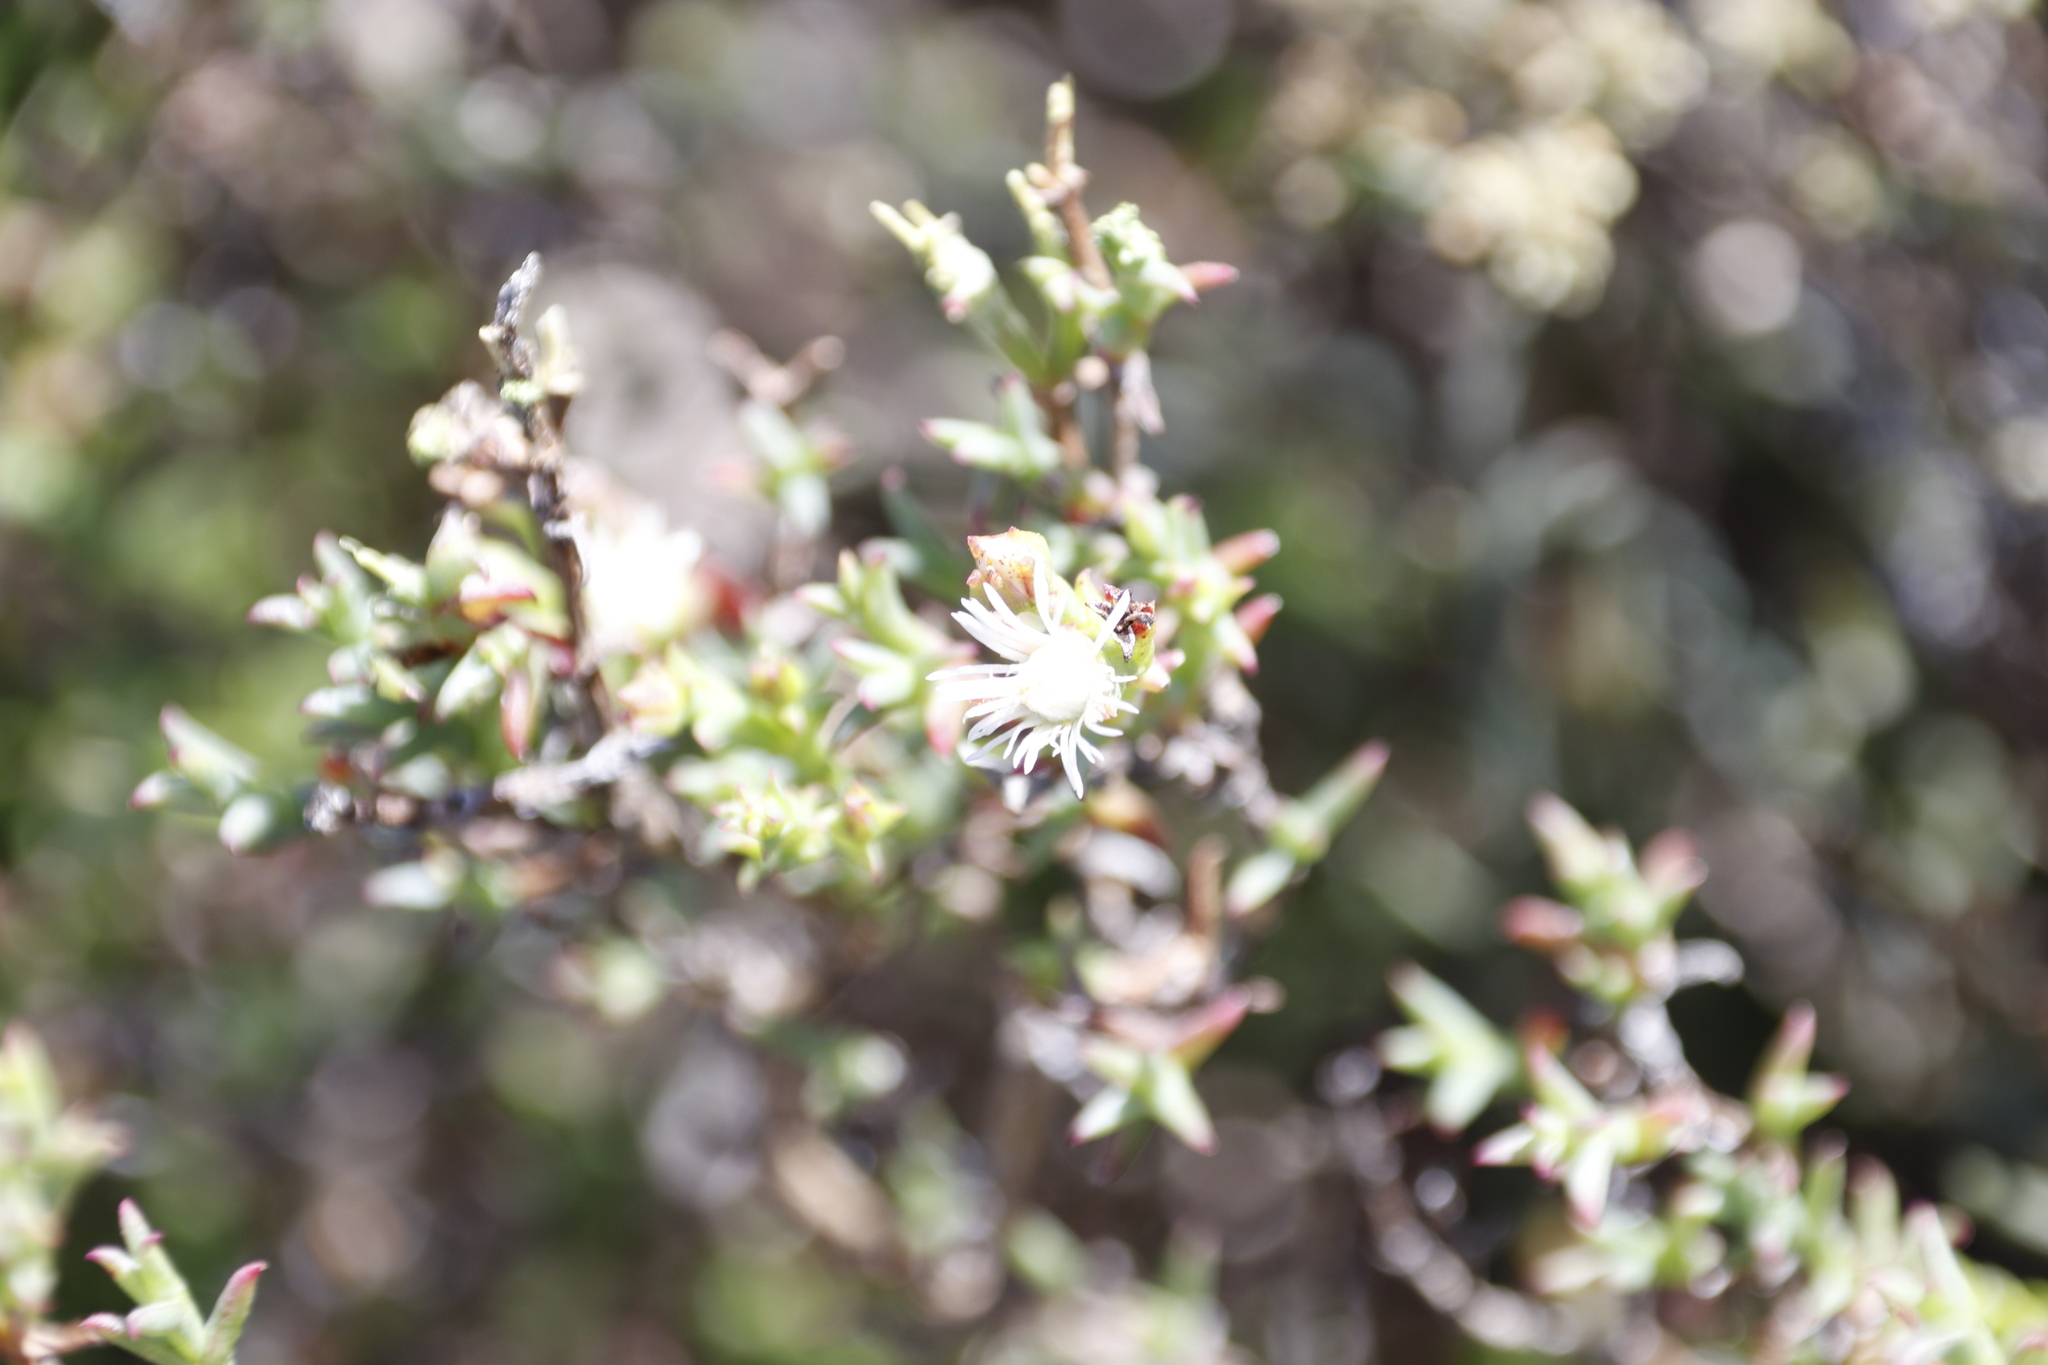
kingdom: Plantae
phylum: Tracheophyta
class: Magnoliopsida
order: Caryophyllales
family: Aizoaceae
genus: Ruschia
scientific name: Ruschia tenella
